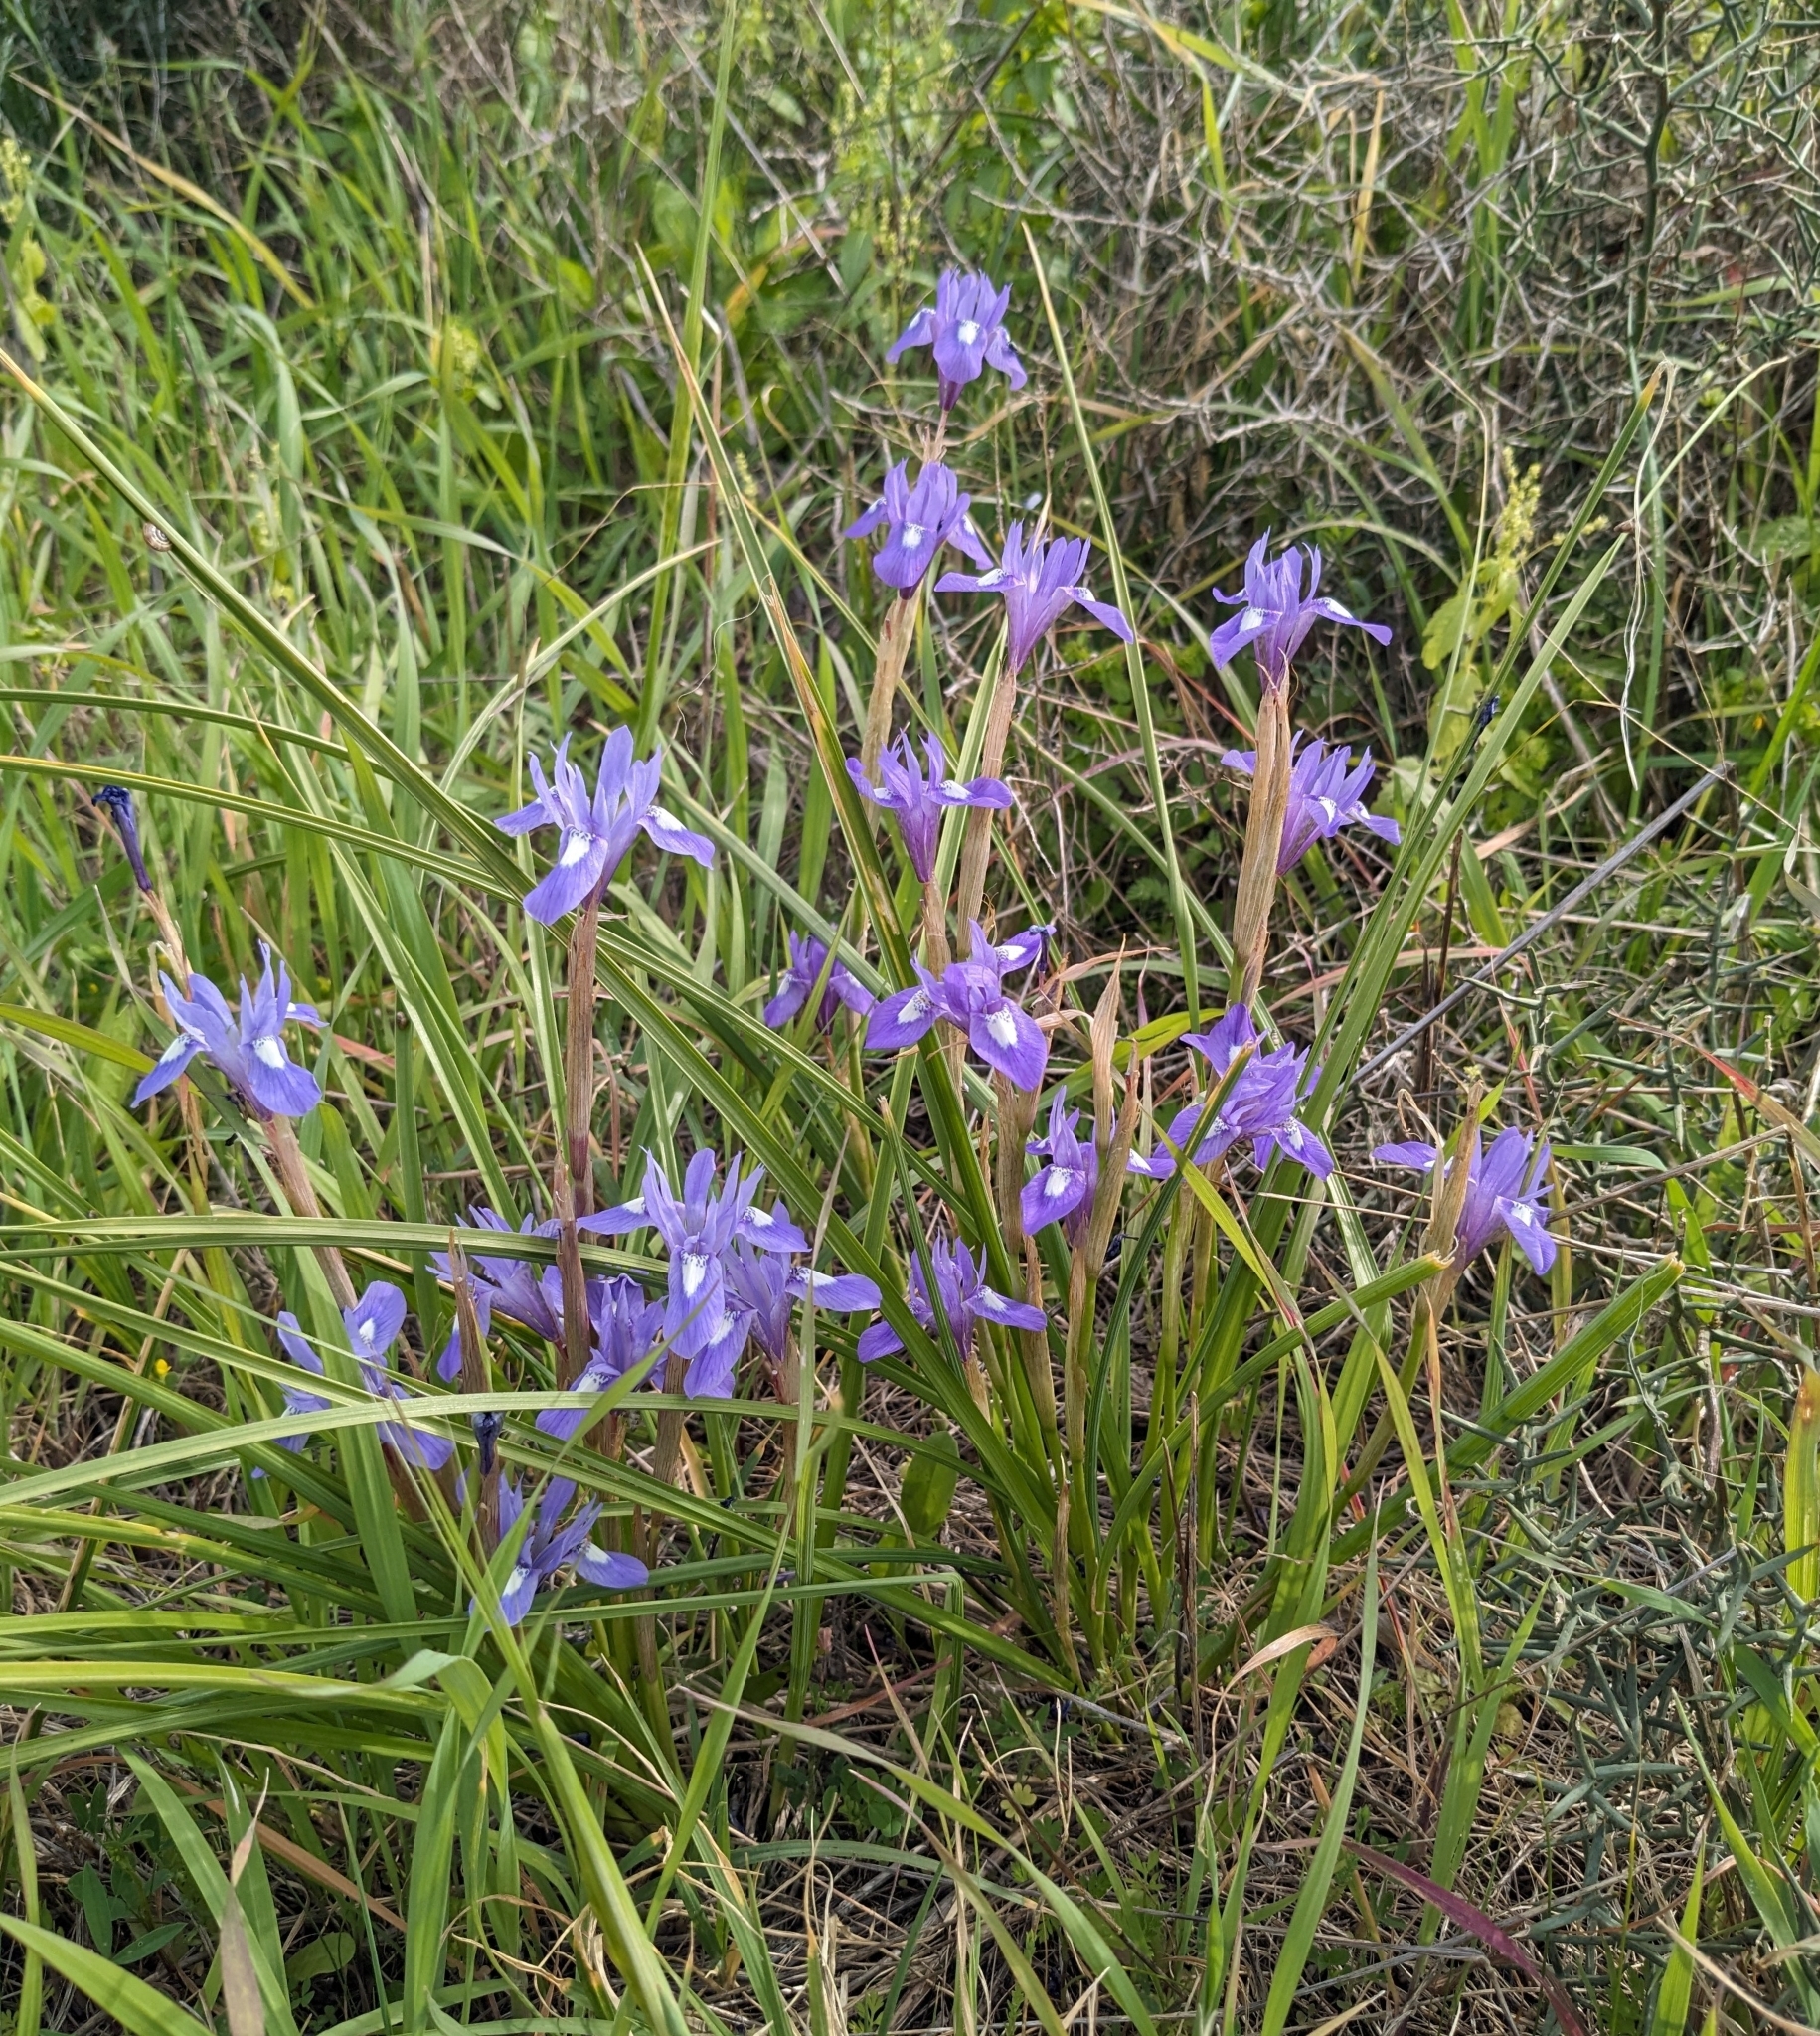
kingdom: Plantae
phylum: Tracheophyta
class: Liliopsida
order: Asparagales
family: Iridaceae
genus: Moraea
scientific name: Moraea sisyrinchium
